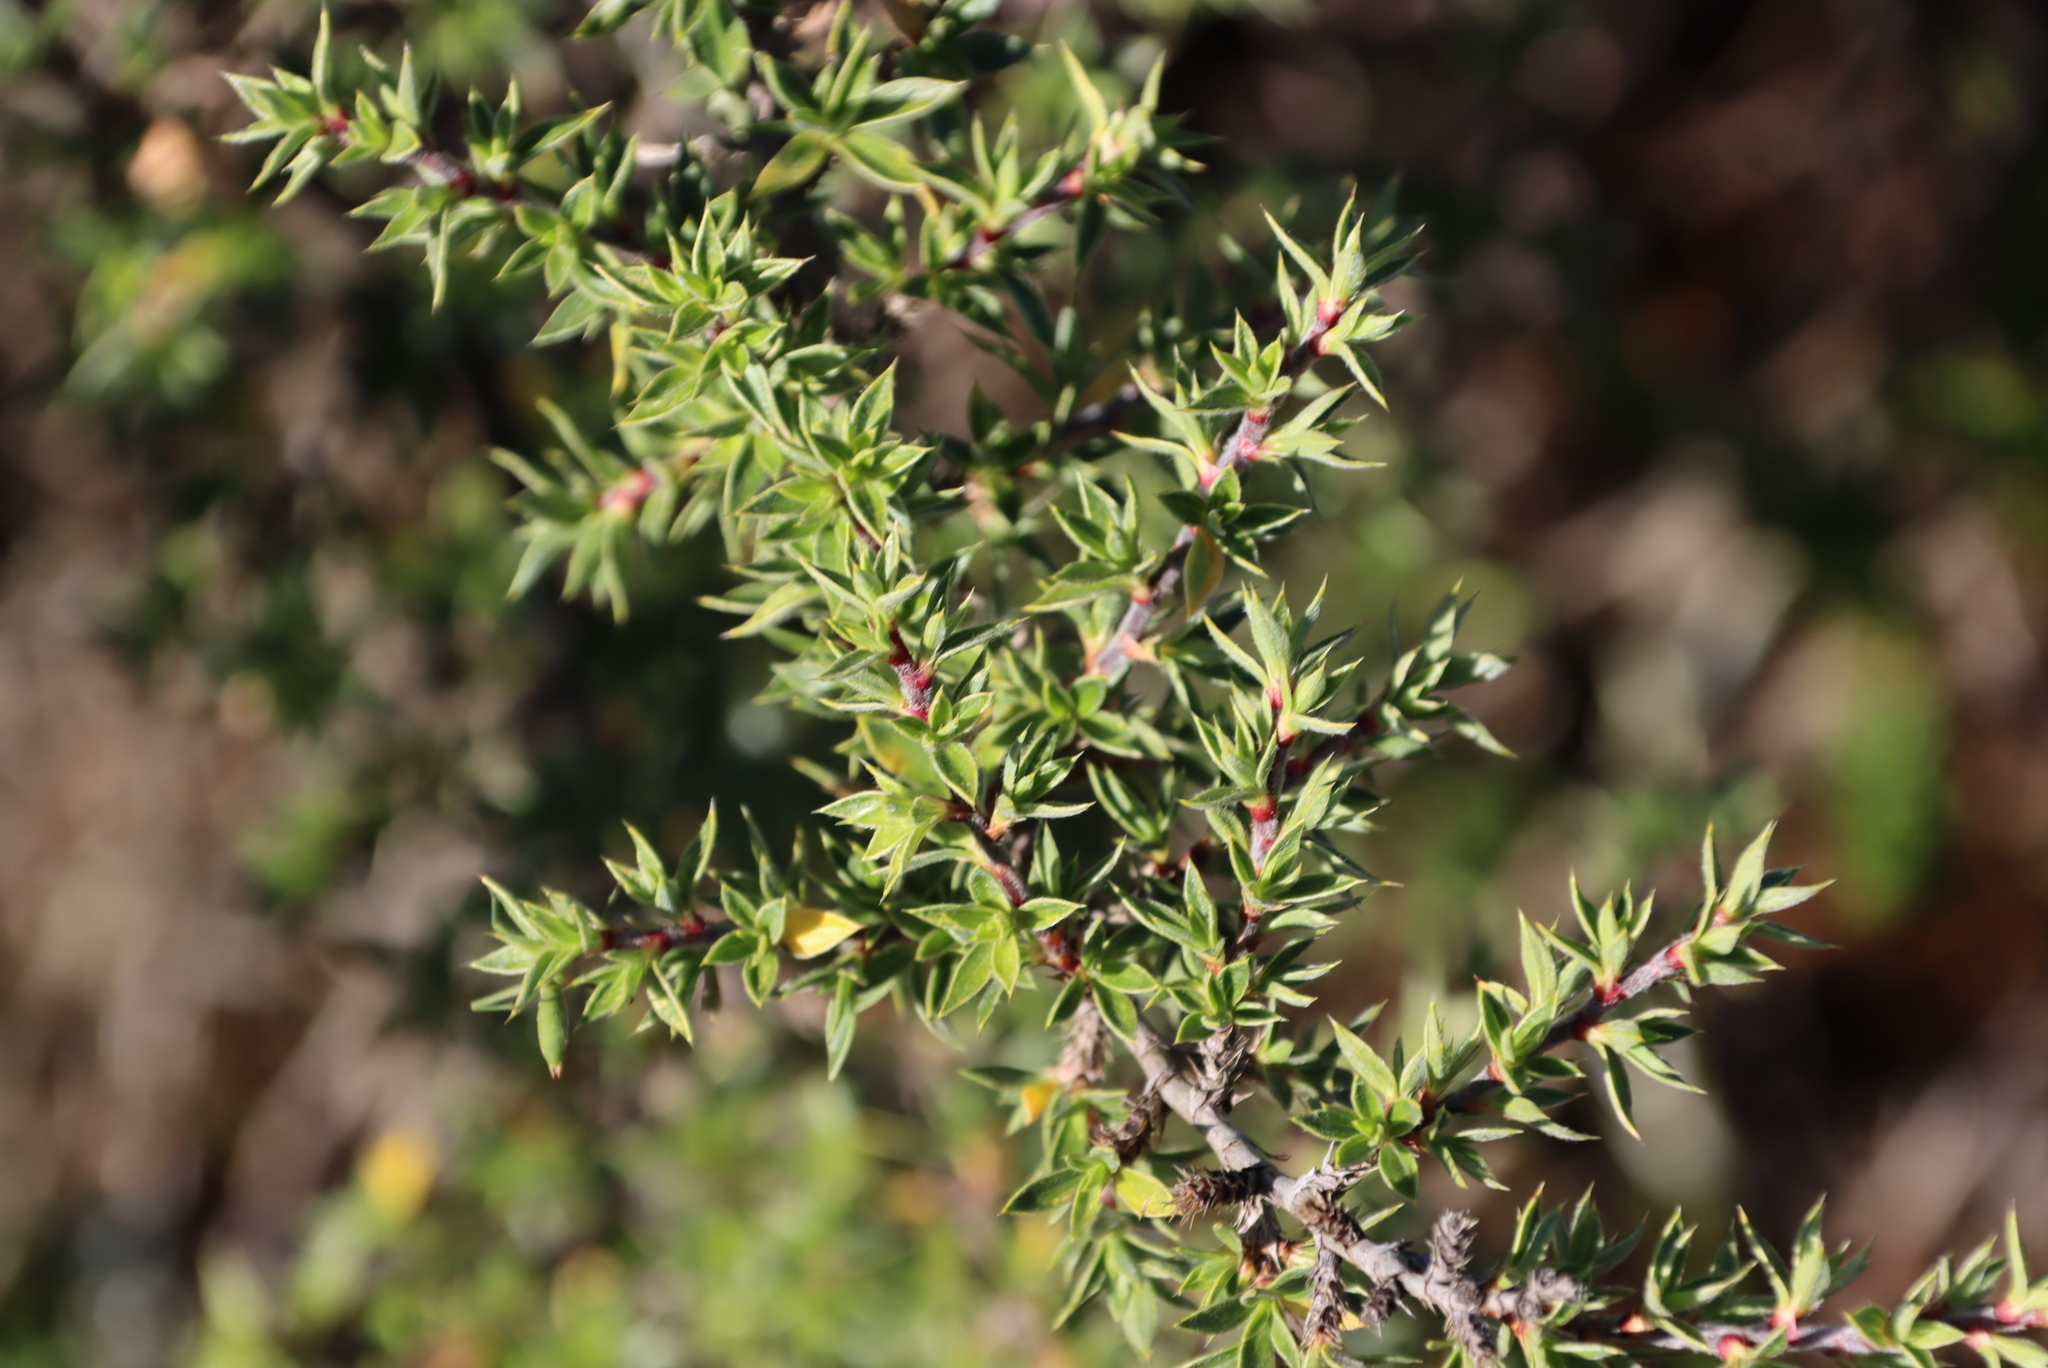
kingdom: Plantae
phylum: Tracheophyta
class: Magnoliopsida
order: Rosales
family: Rosaceae
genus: Cliffortia
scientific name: Cliffortia ruscifolia
